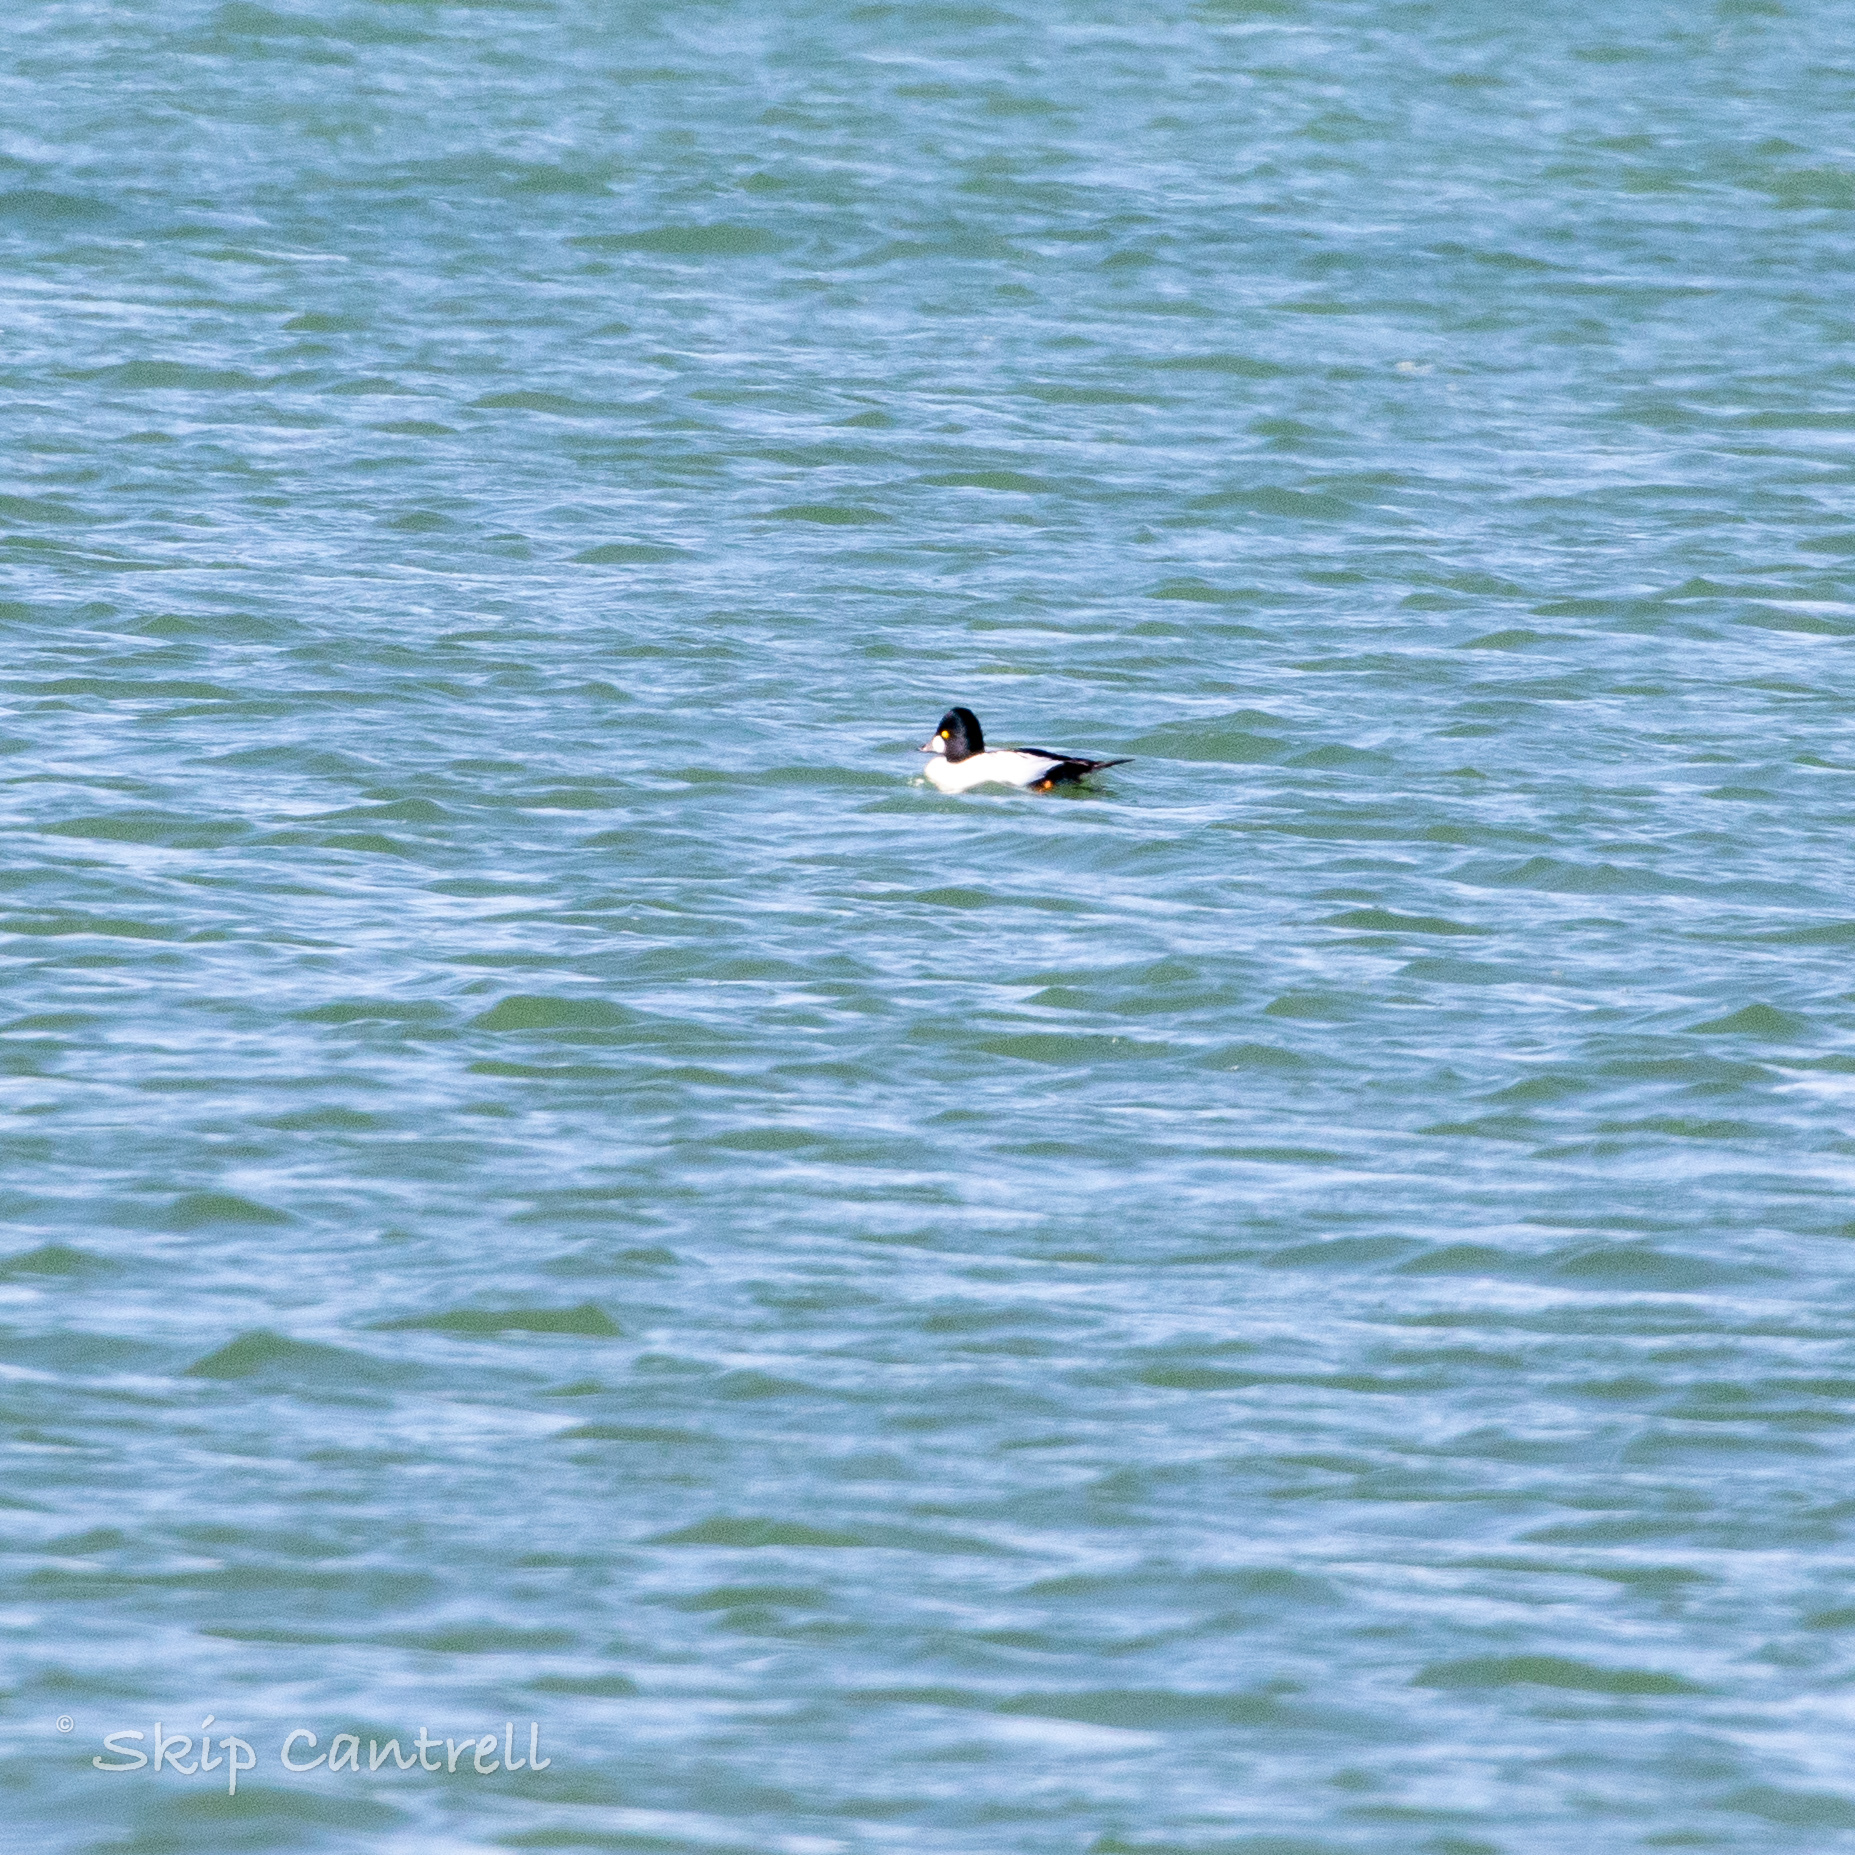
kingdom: Animalia
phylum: Chordata
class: Aves
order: Anseriformes
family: Anatidae
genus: Bucephala
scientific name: Bucephala clangula
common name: Common goldeneye
